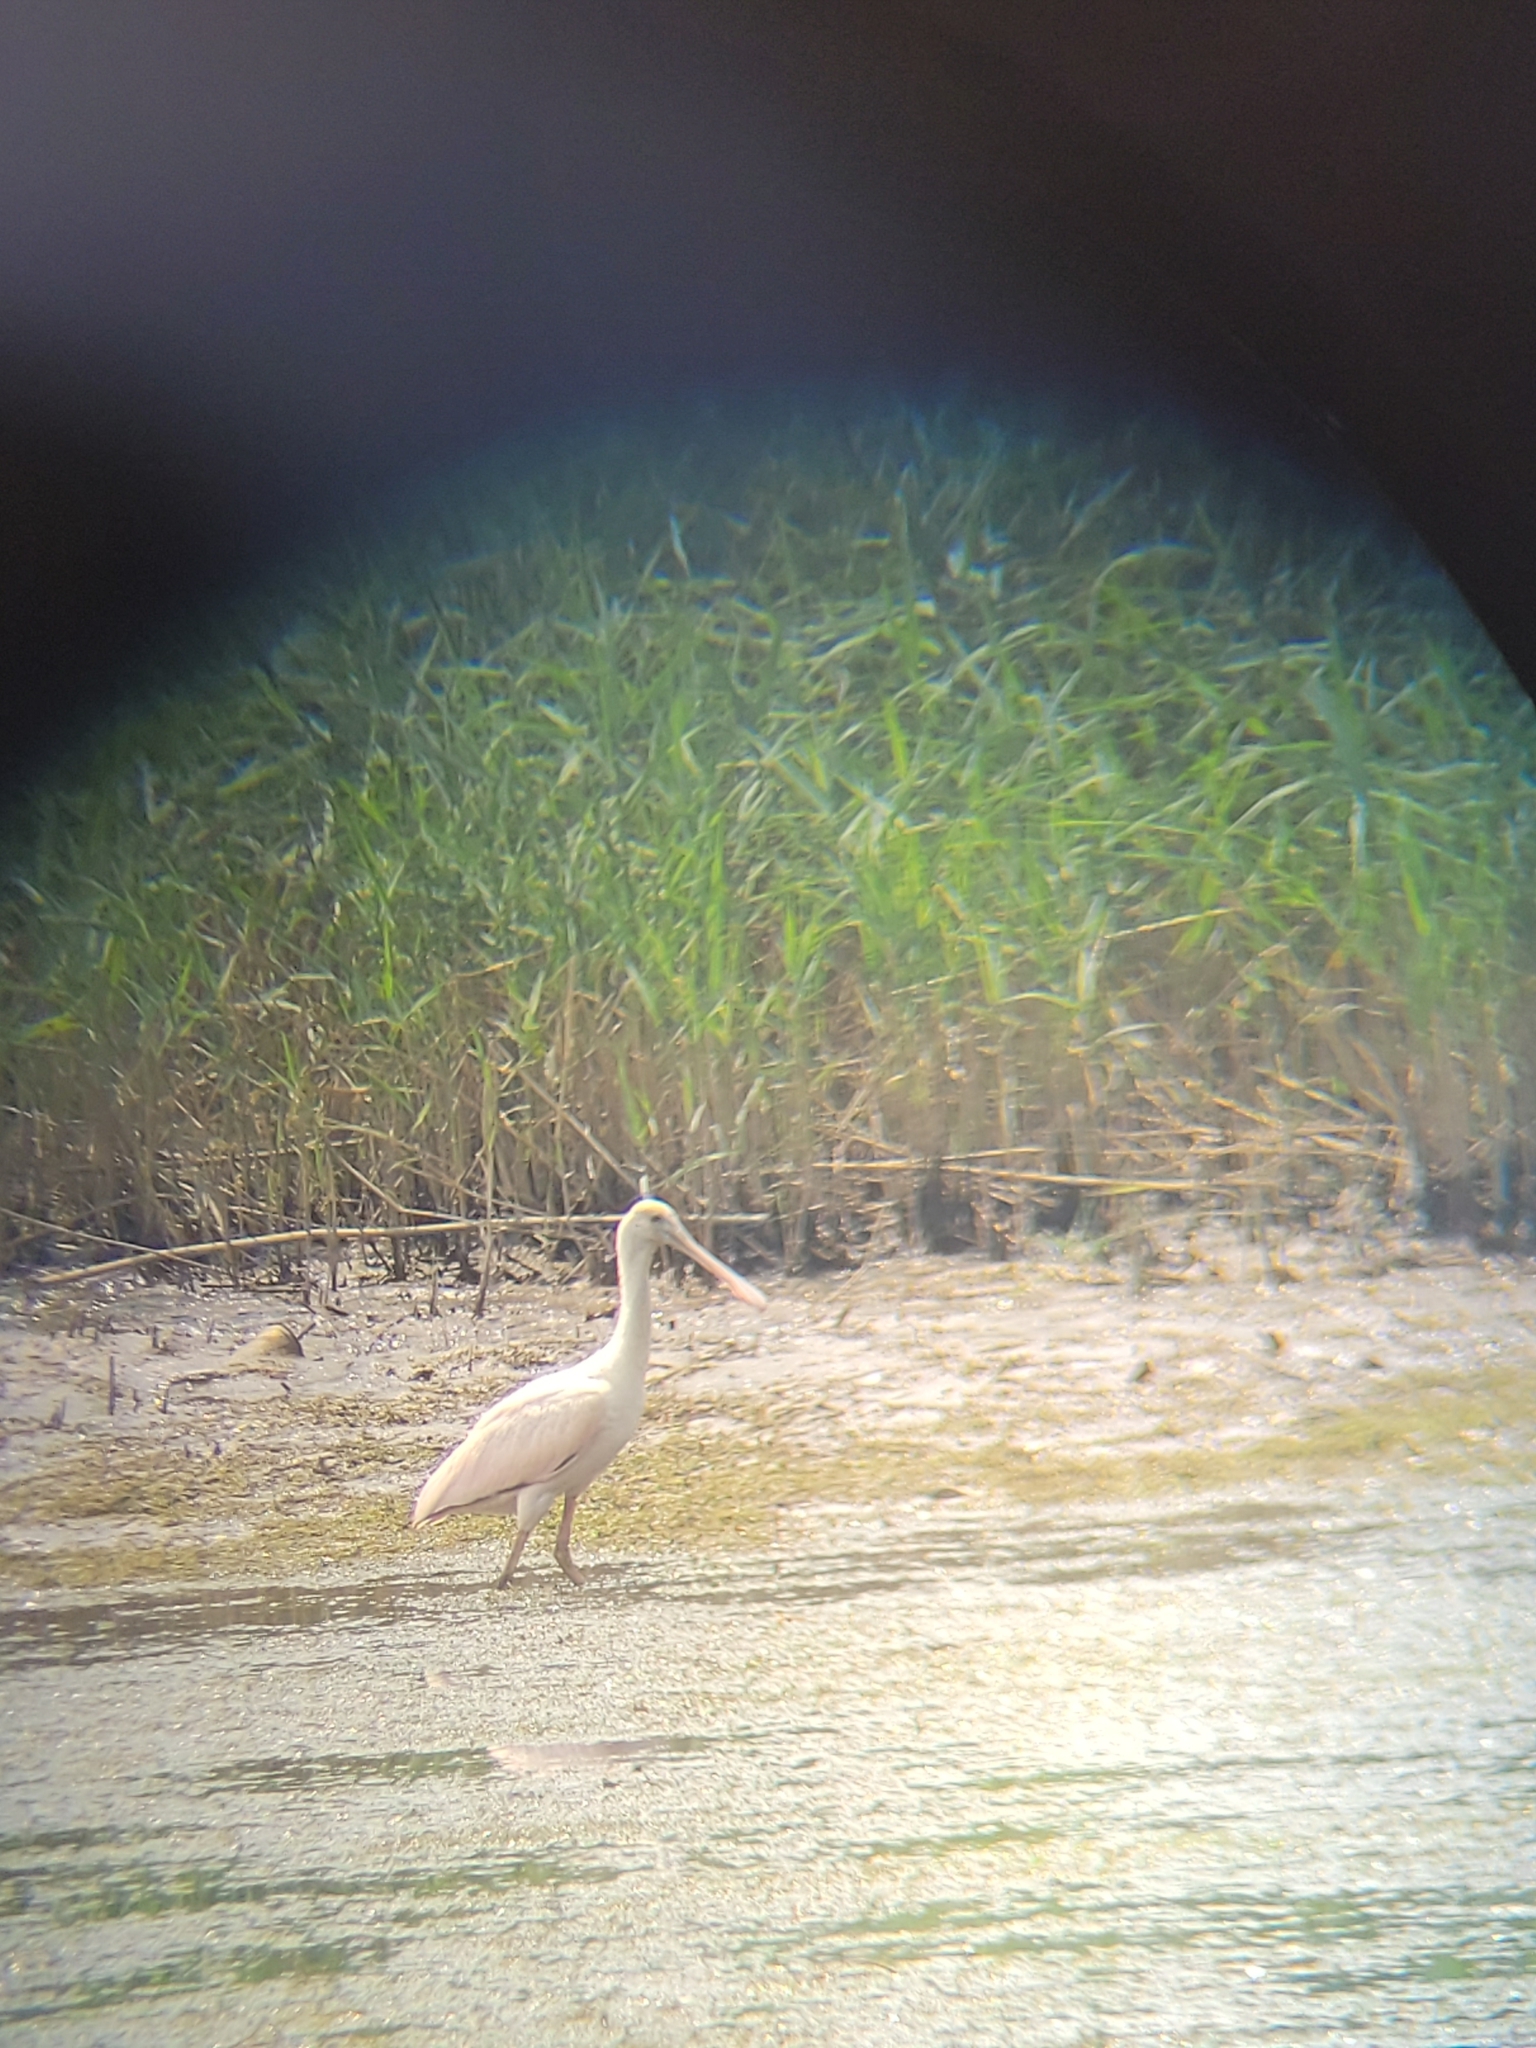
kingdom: Animalia
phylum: Chordata
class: Aves
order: Pelecaniformes
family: Threskiornithidae
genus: Platalea
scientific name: Platalea ajaja
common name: Roseate spoonbill
